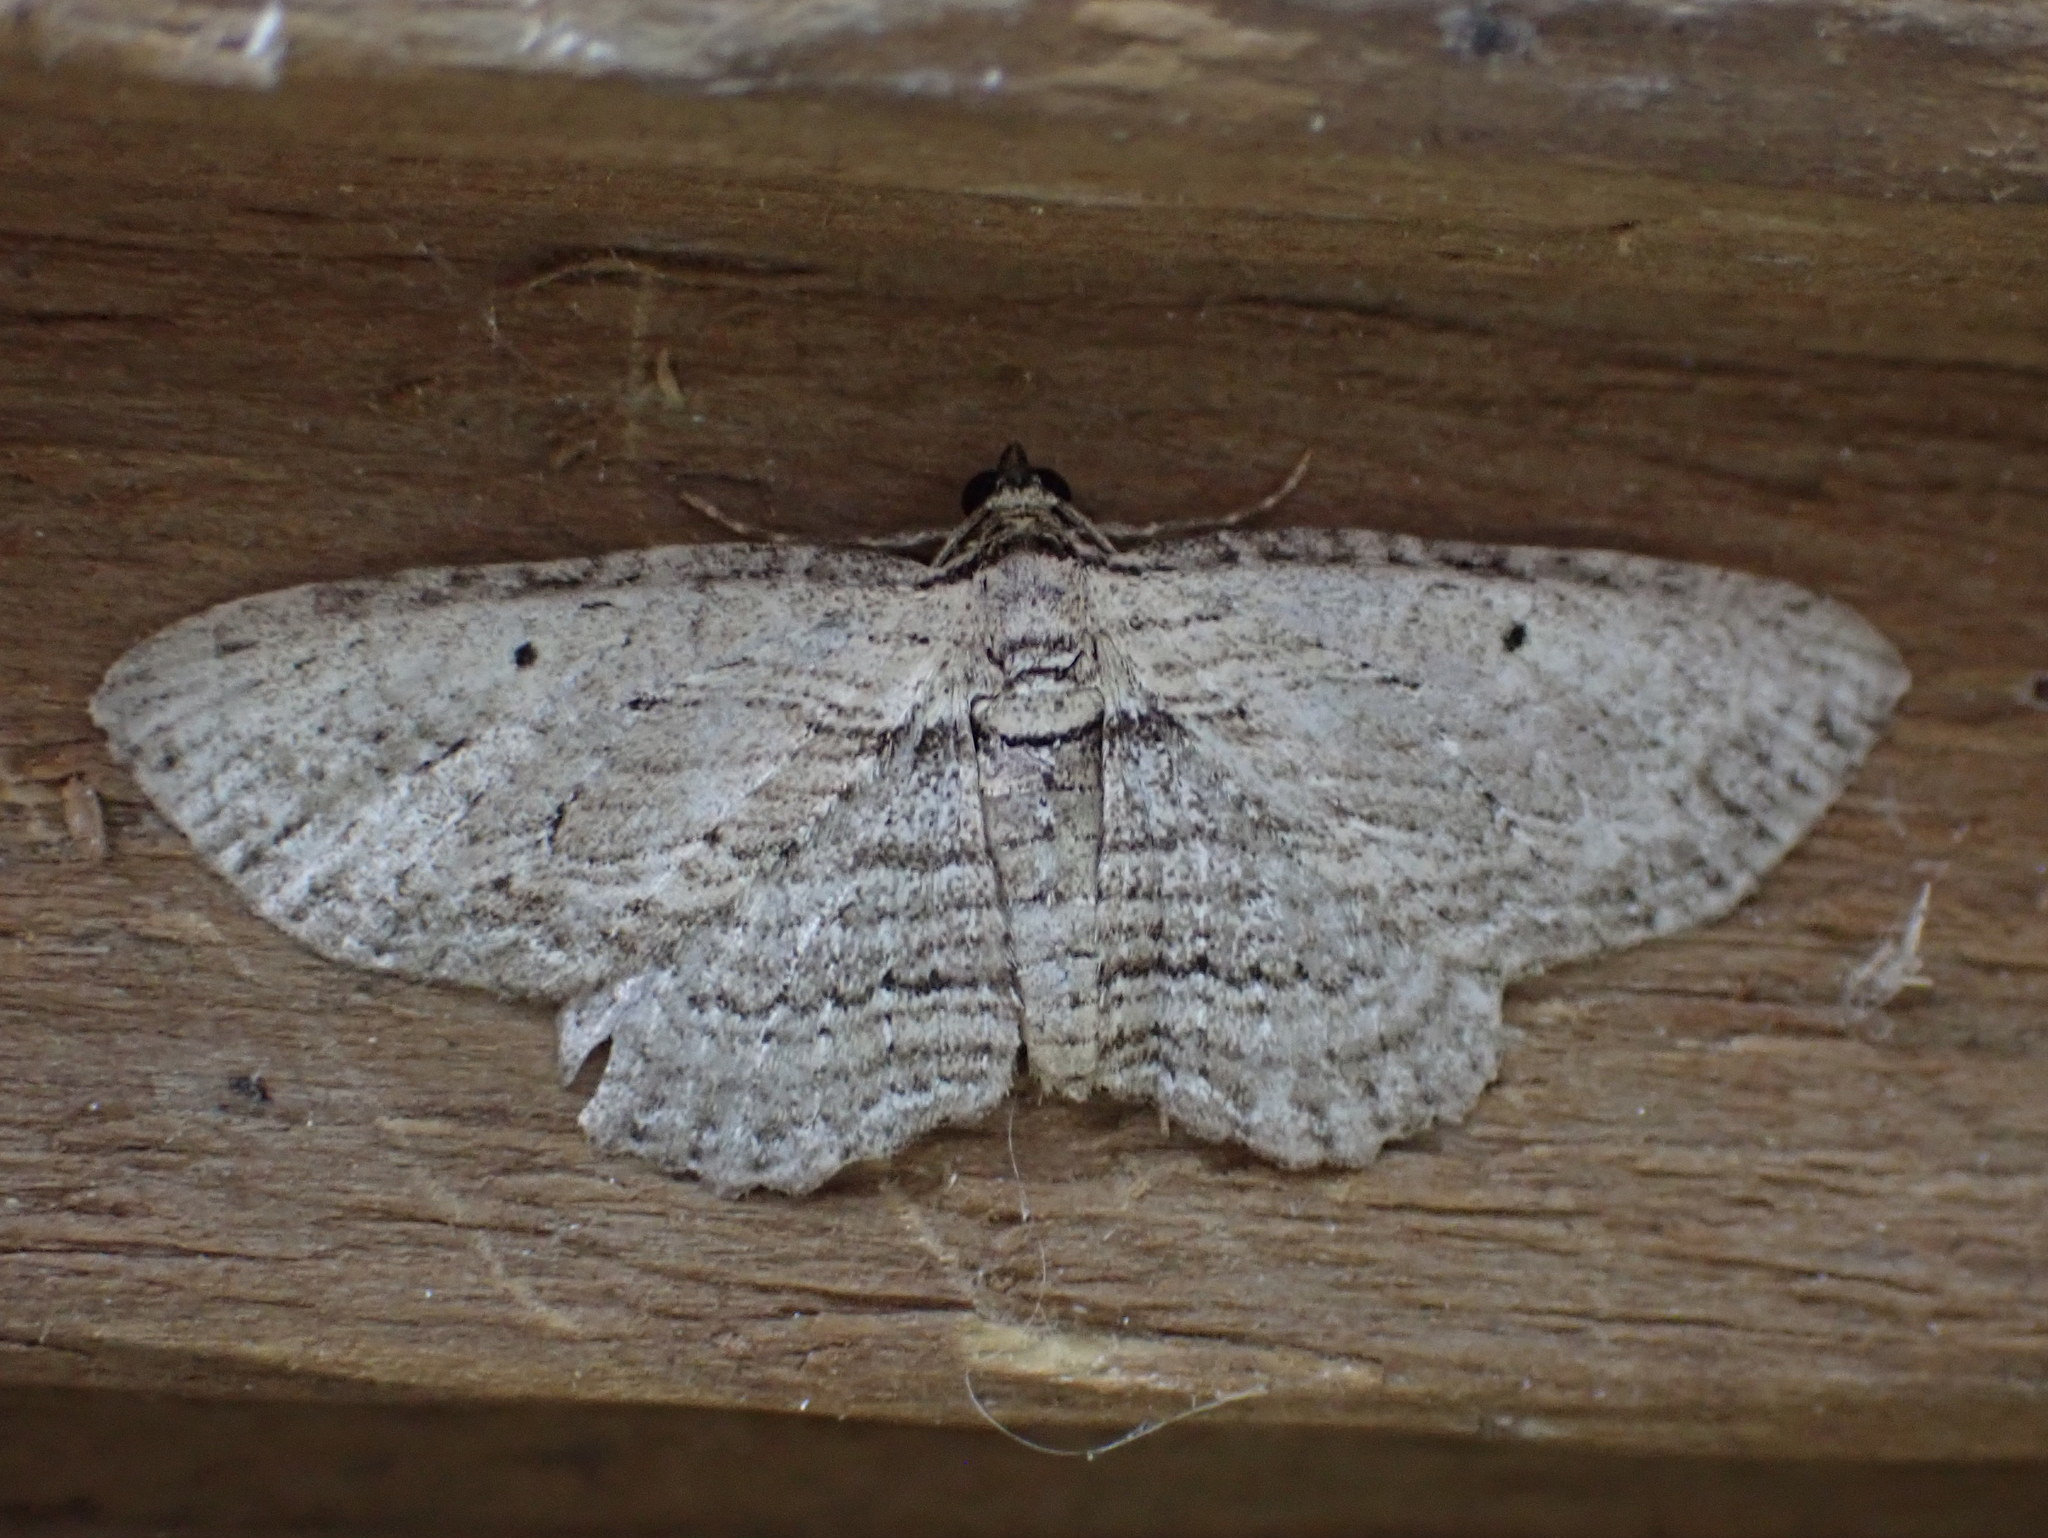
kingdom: Animalia
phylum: Arthropoda
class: Insecta
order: Lepidoptera
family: Geometridae
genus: Horisme
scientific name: Horisme intestinata
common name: Brown bark carpet
